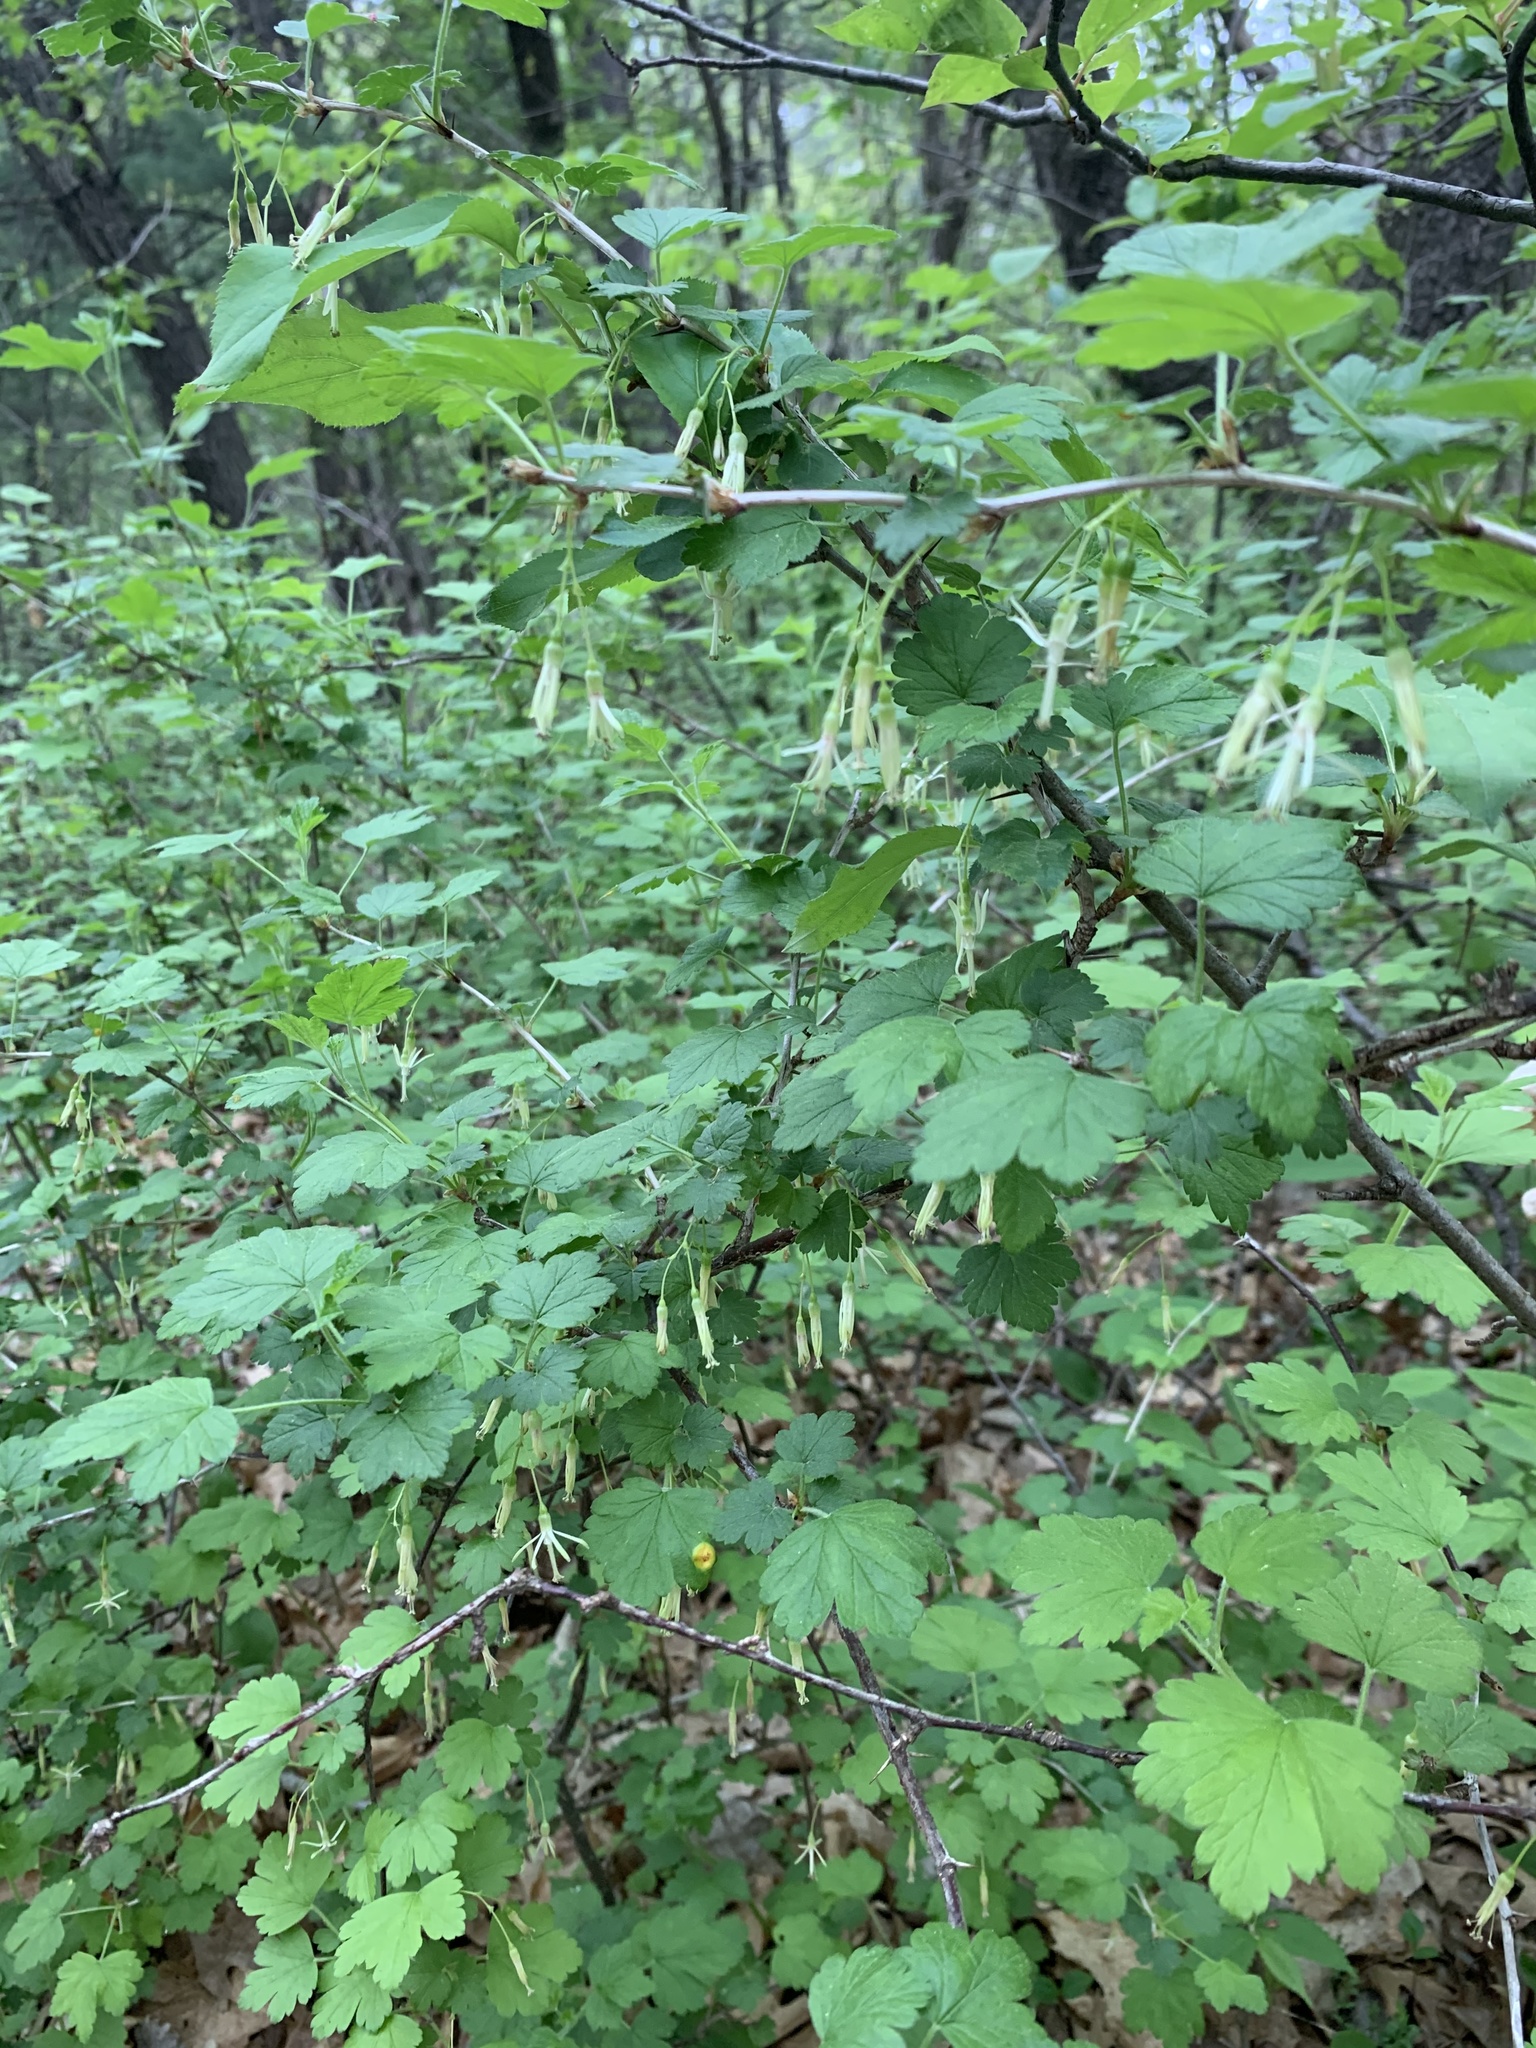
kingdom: Plantae
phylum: Tracheophyta
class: Magnoliopsida
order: Saxifragales
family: Grossulariaceae
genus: Ribes
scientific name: Ribes missouriense
